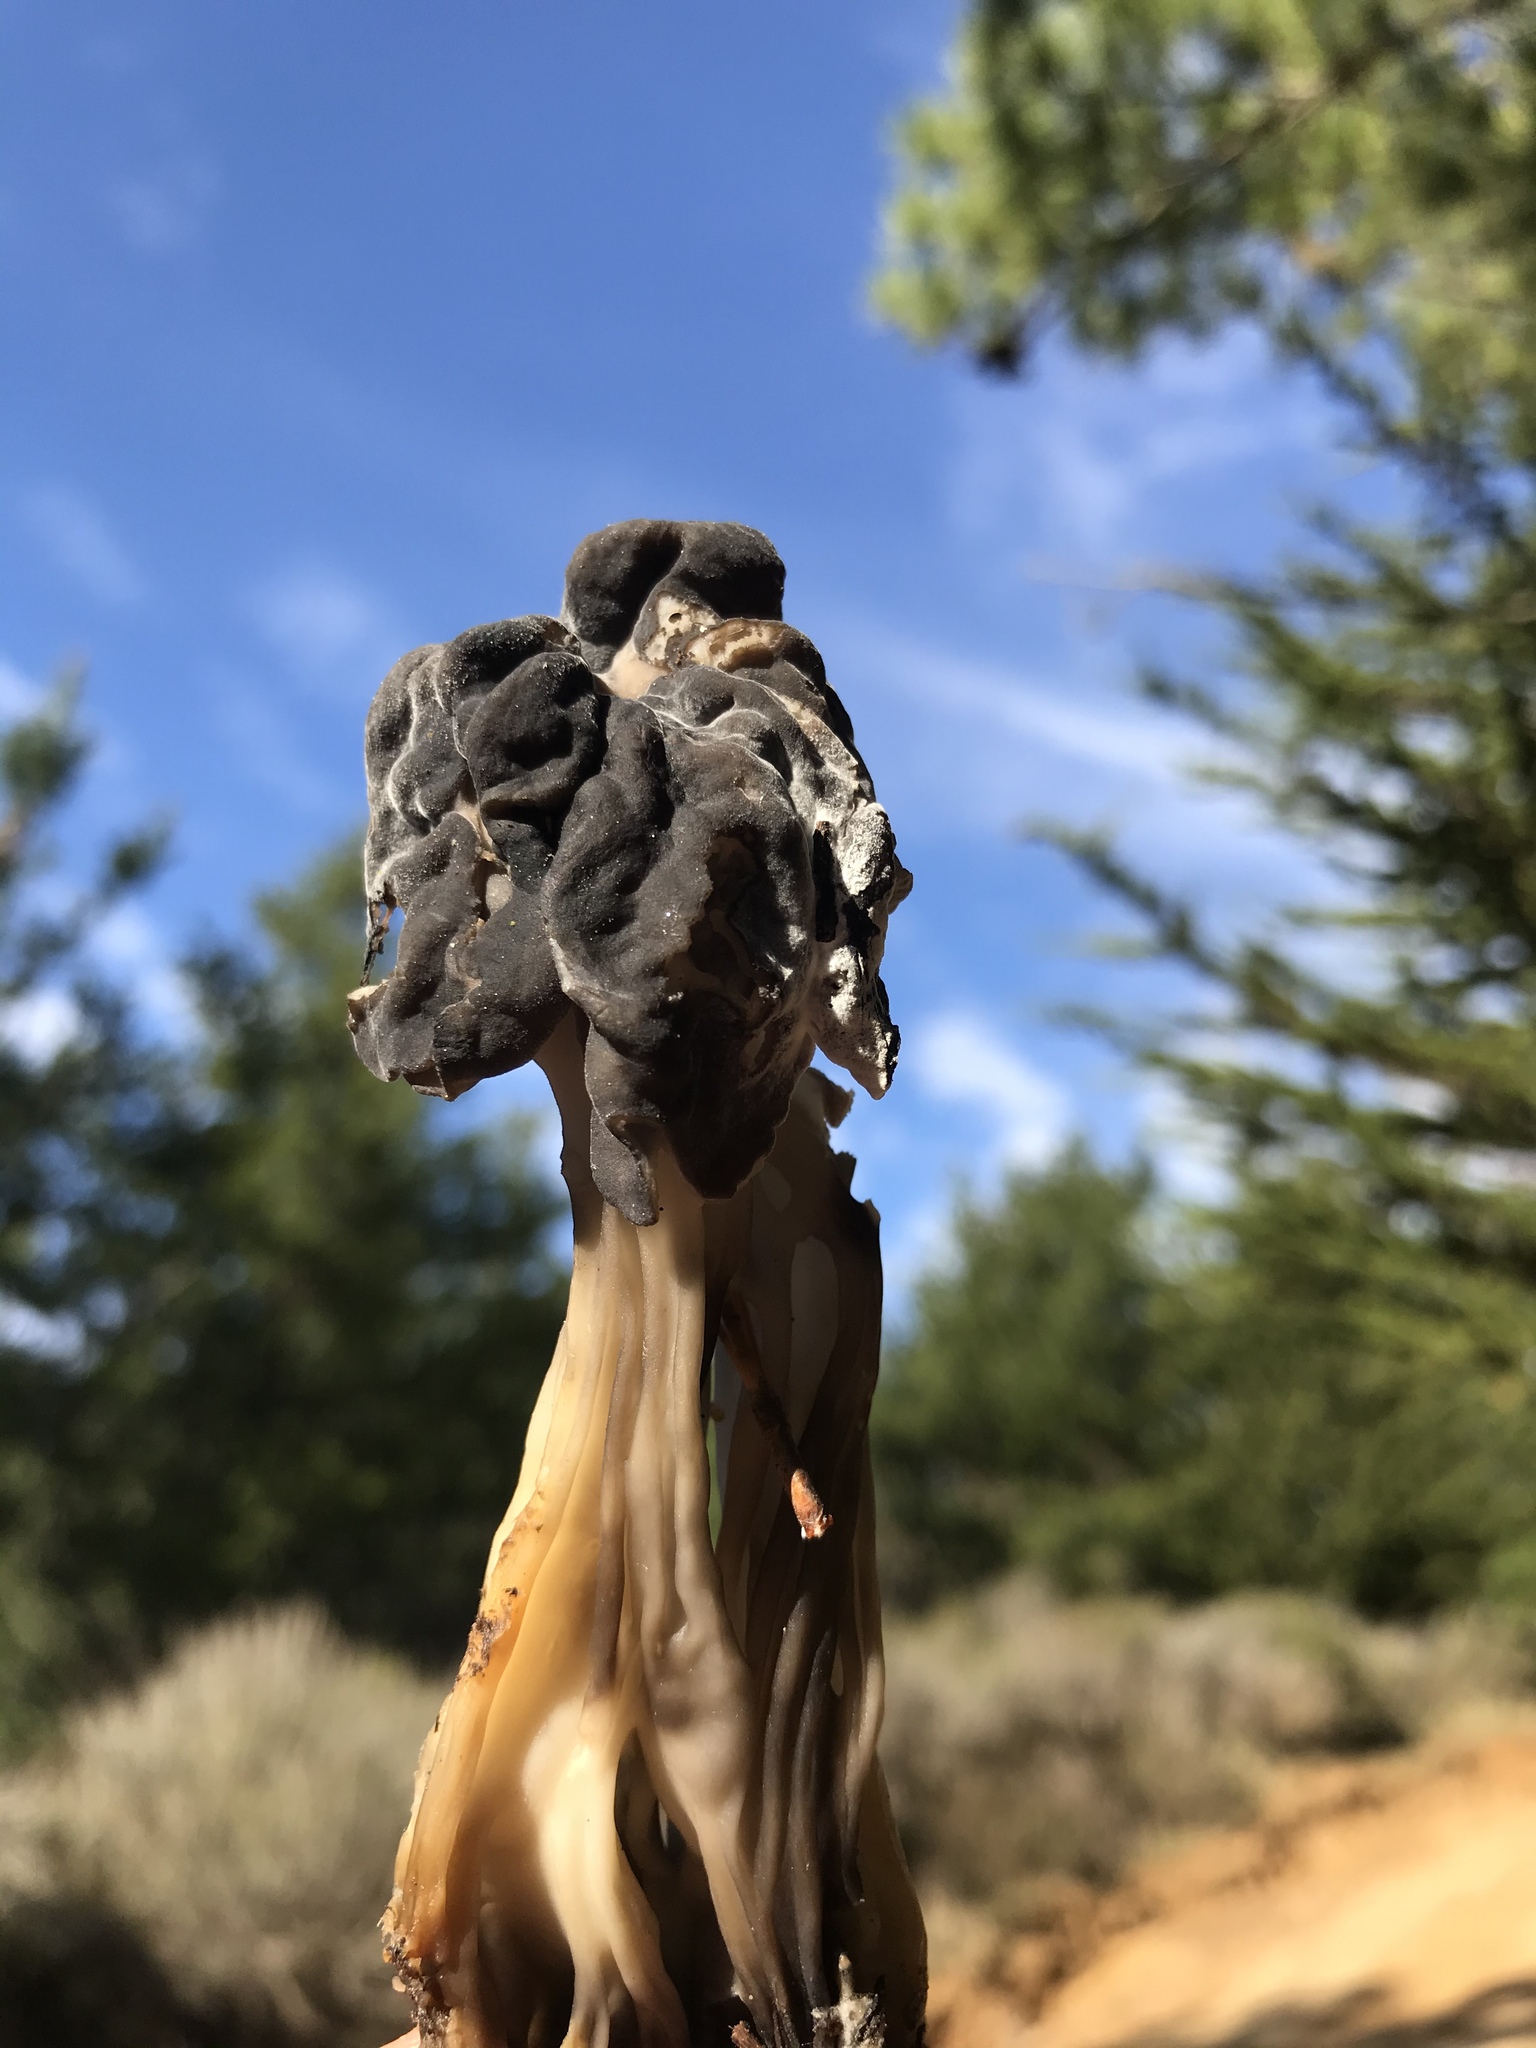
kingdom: Fungi
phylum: Ascomycota
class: Pezizomycetes
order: Pezizales
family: Helvellaceae
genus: Helvella
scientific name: Helvella vespertina
